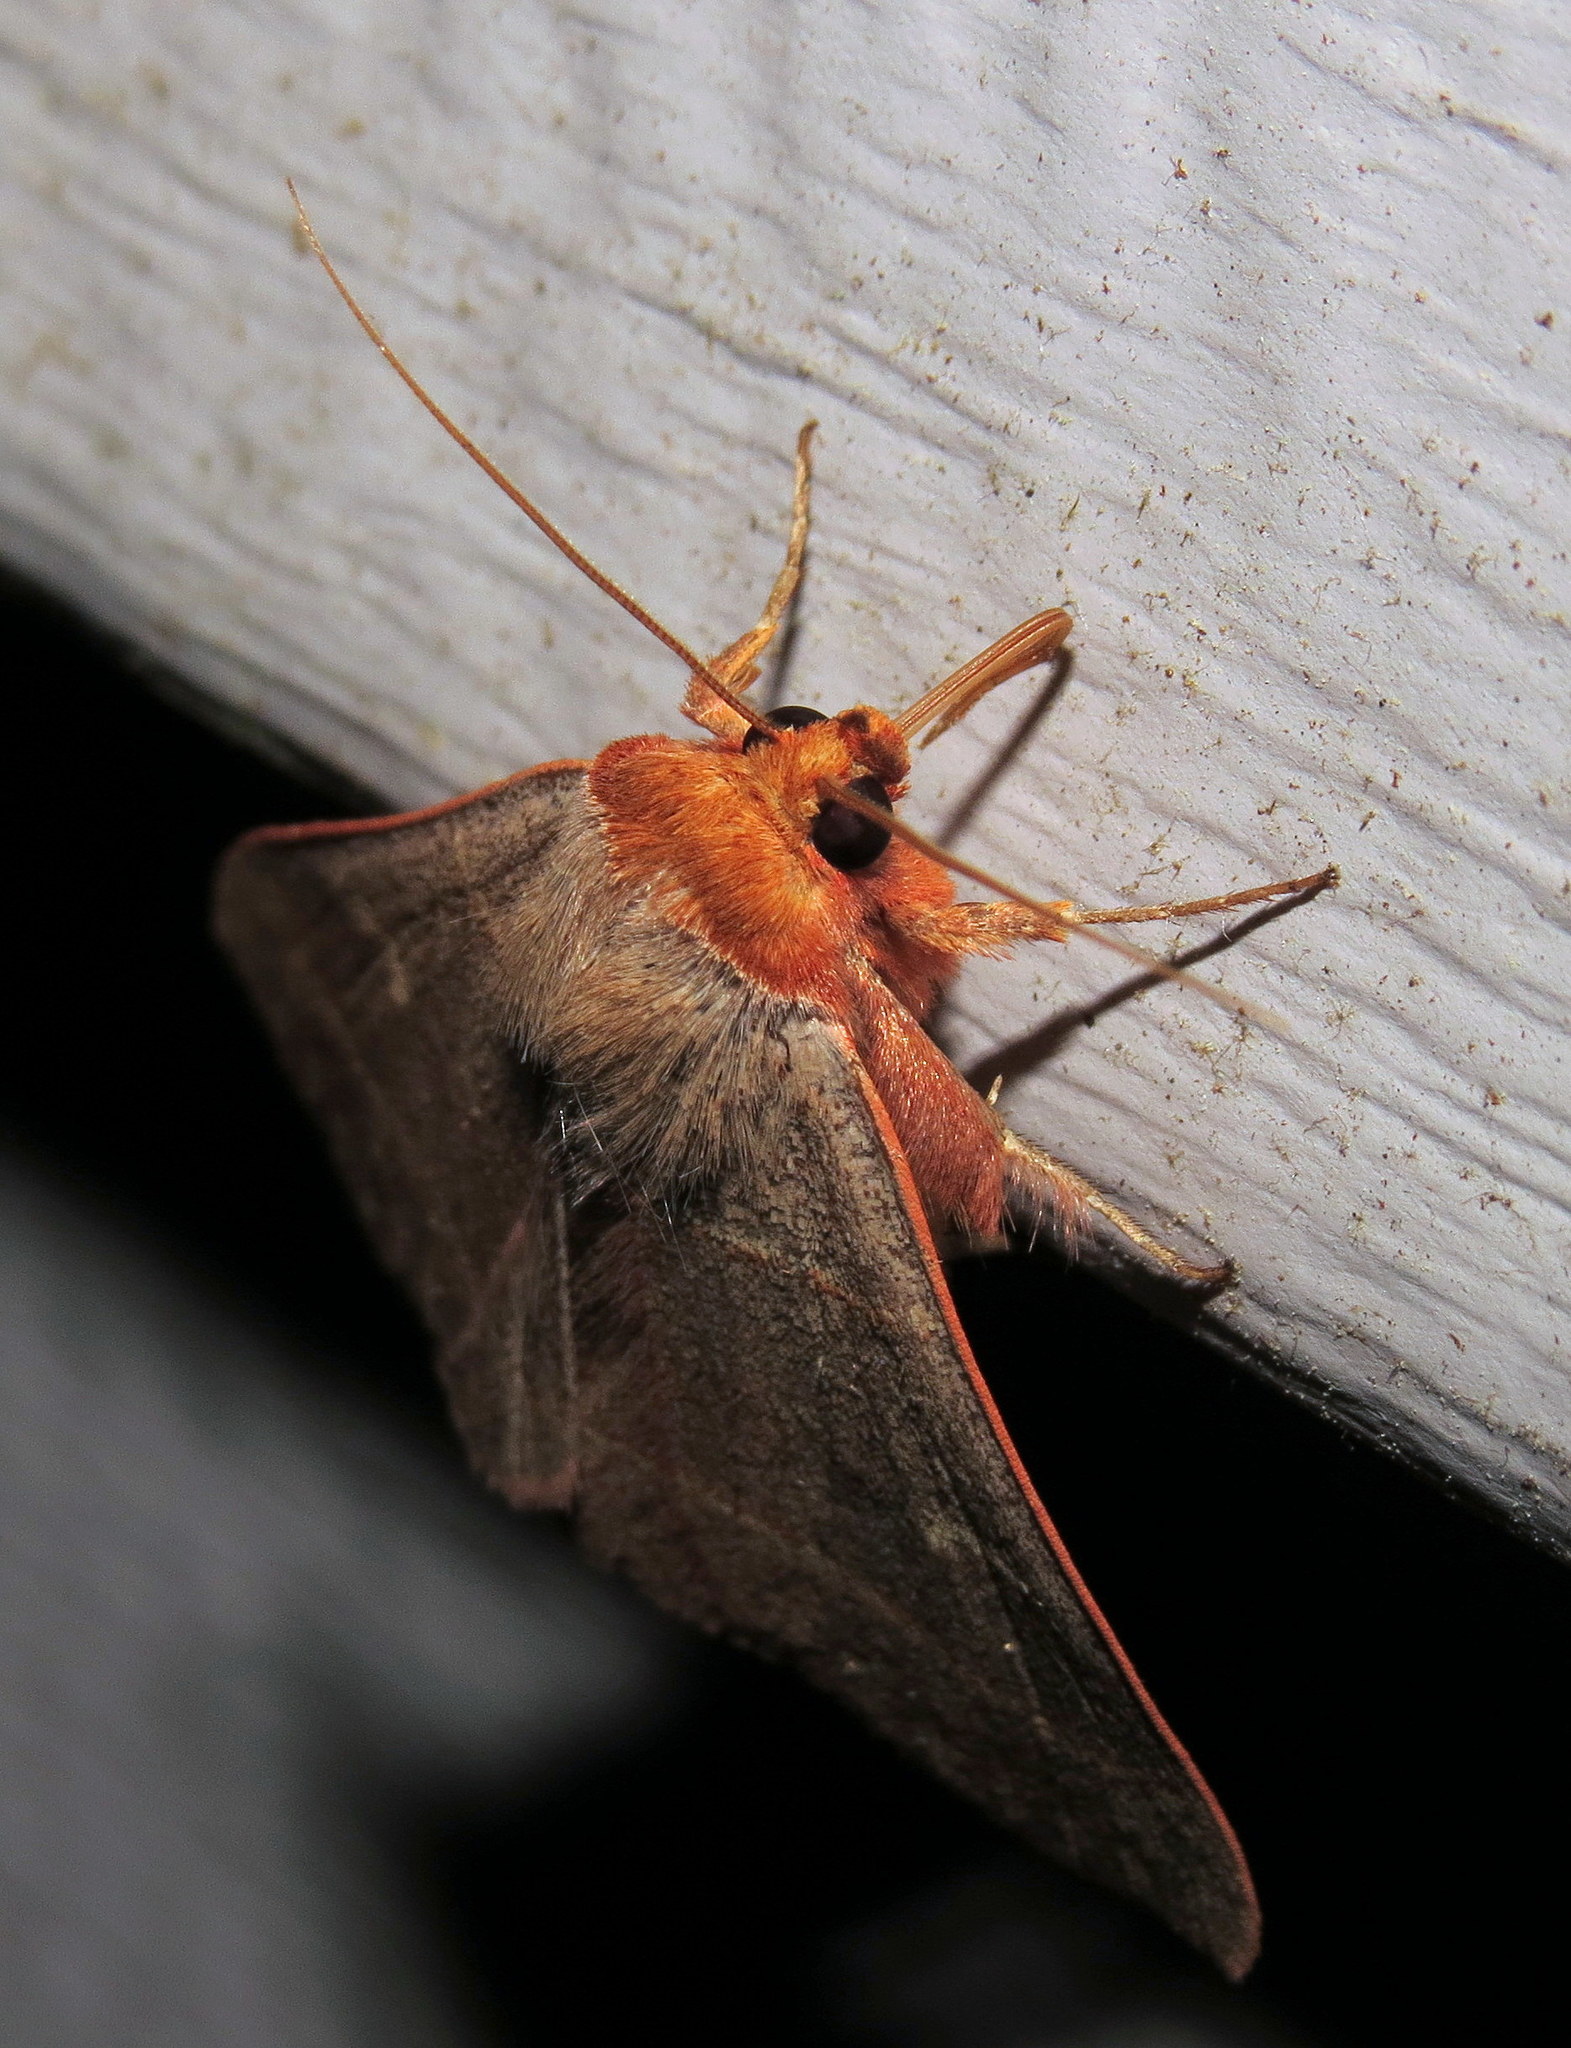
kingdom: Animalia
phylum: Arthropoda
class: Insecta
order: Lepidoptera
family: Erebidae
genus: Panopoda
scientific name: Panopoda rufimargo
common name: Red-lined panopoda moth
